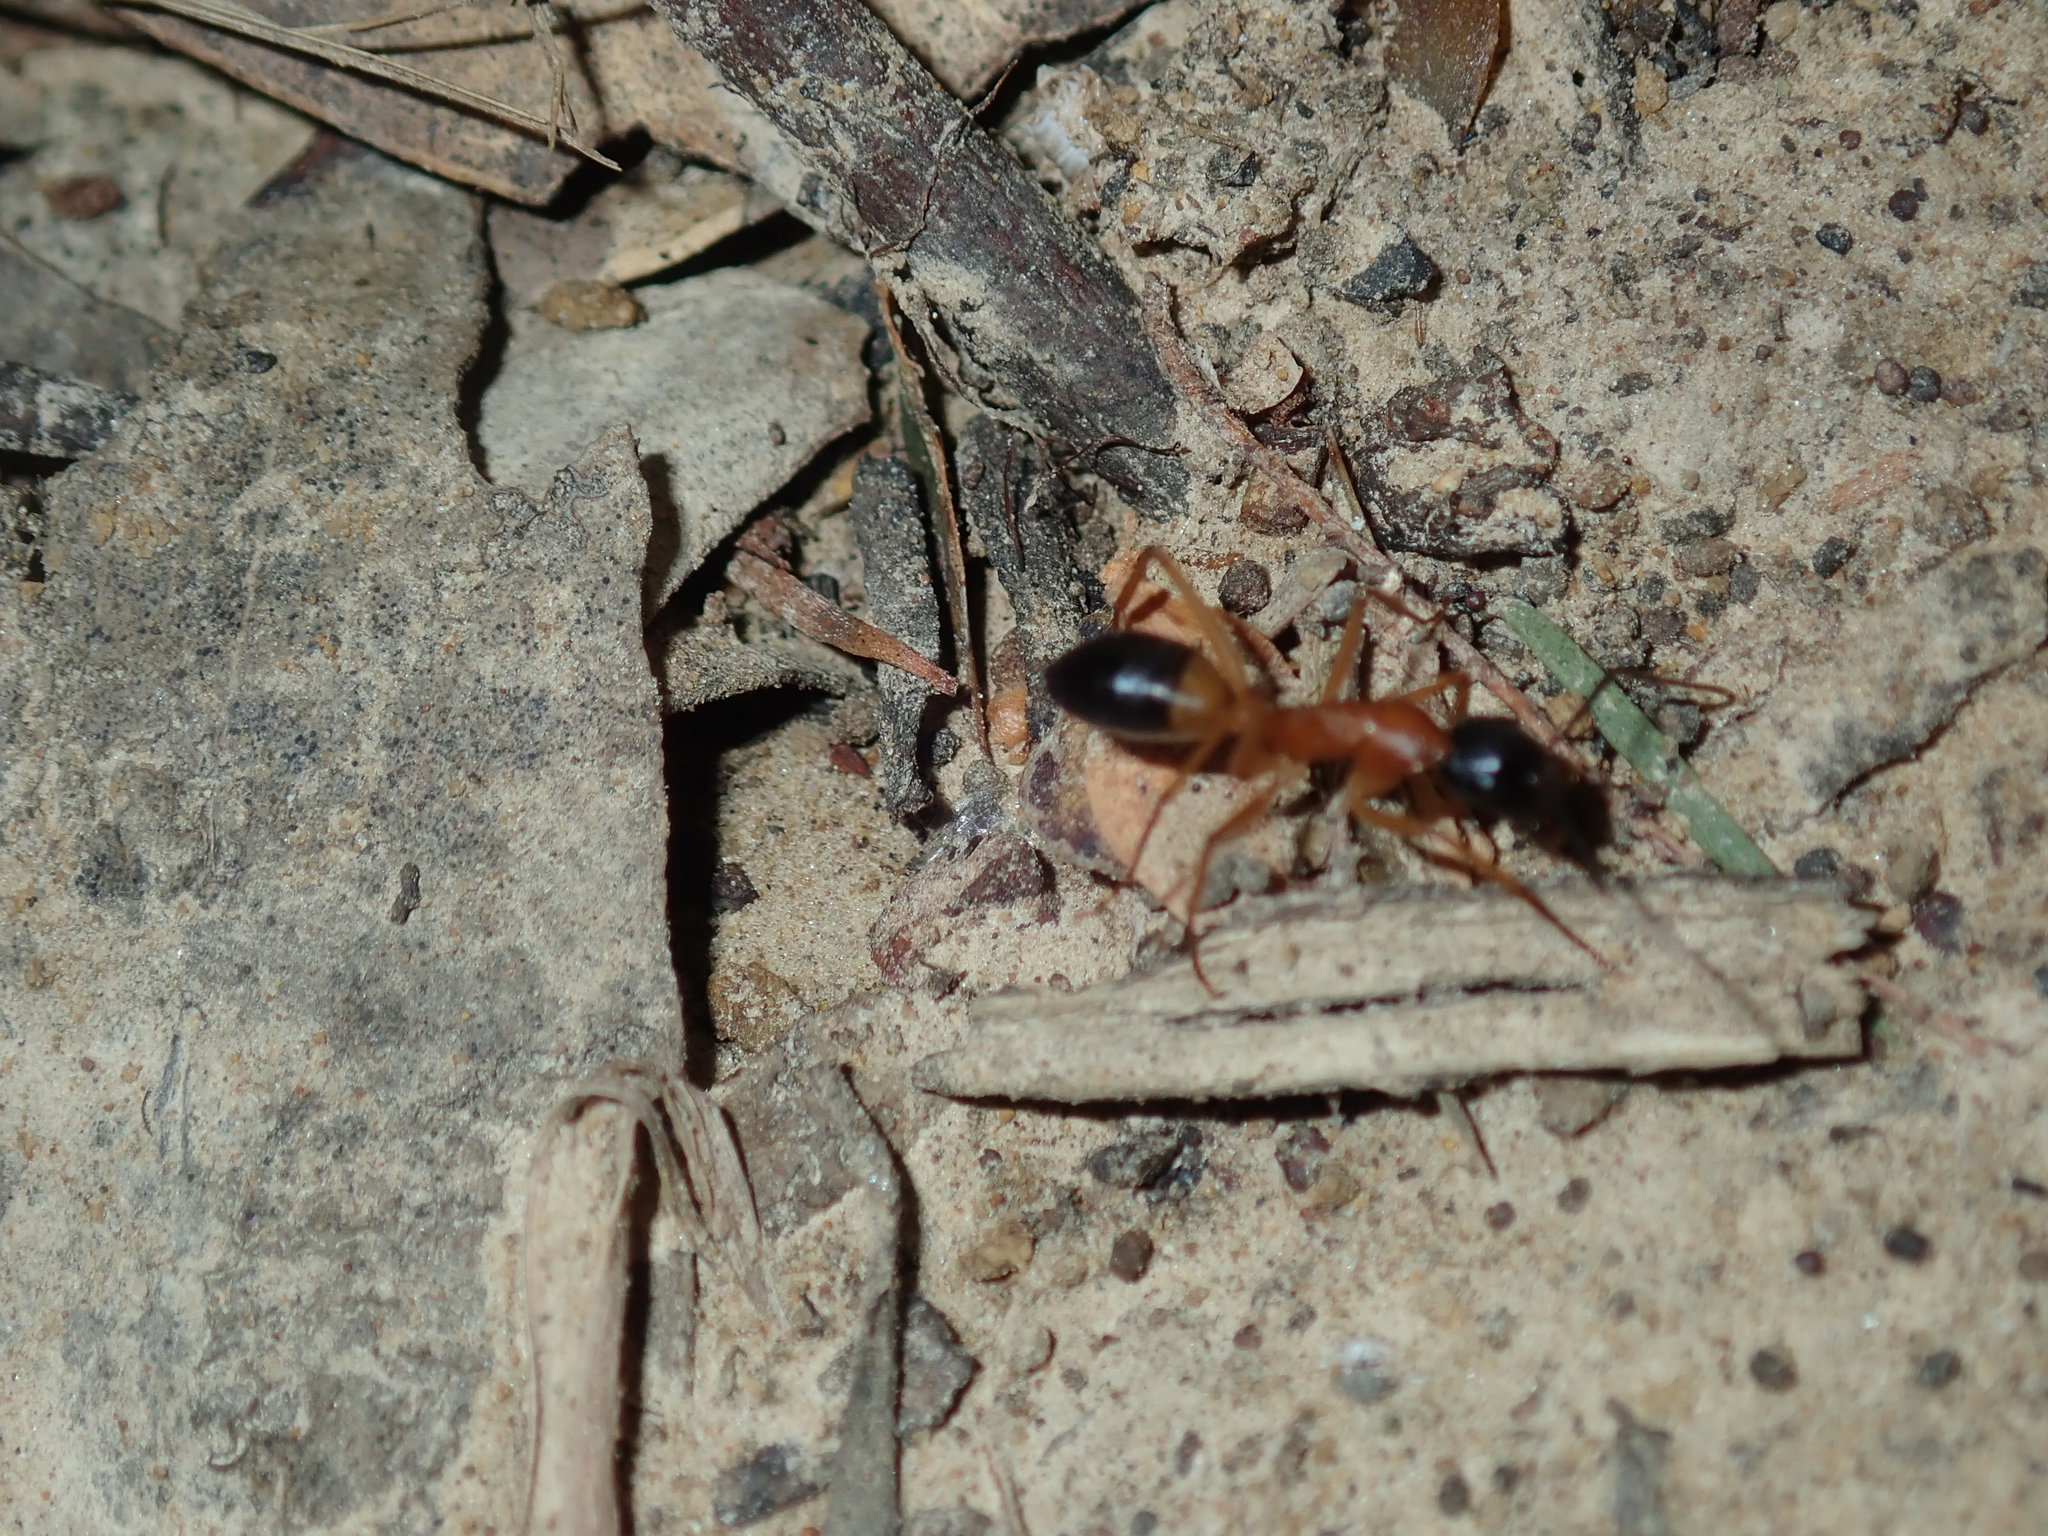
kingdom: Animalia
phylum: Arthropoda
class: Insecta
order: Hymenoptera
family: Formicidae
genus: Camponotus
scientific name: Camponotus consobrinus
